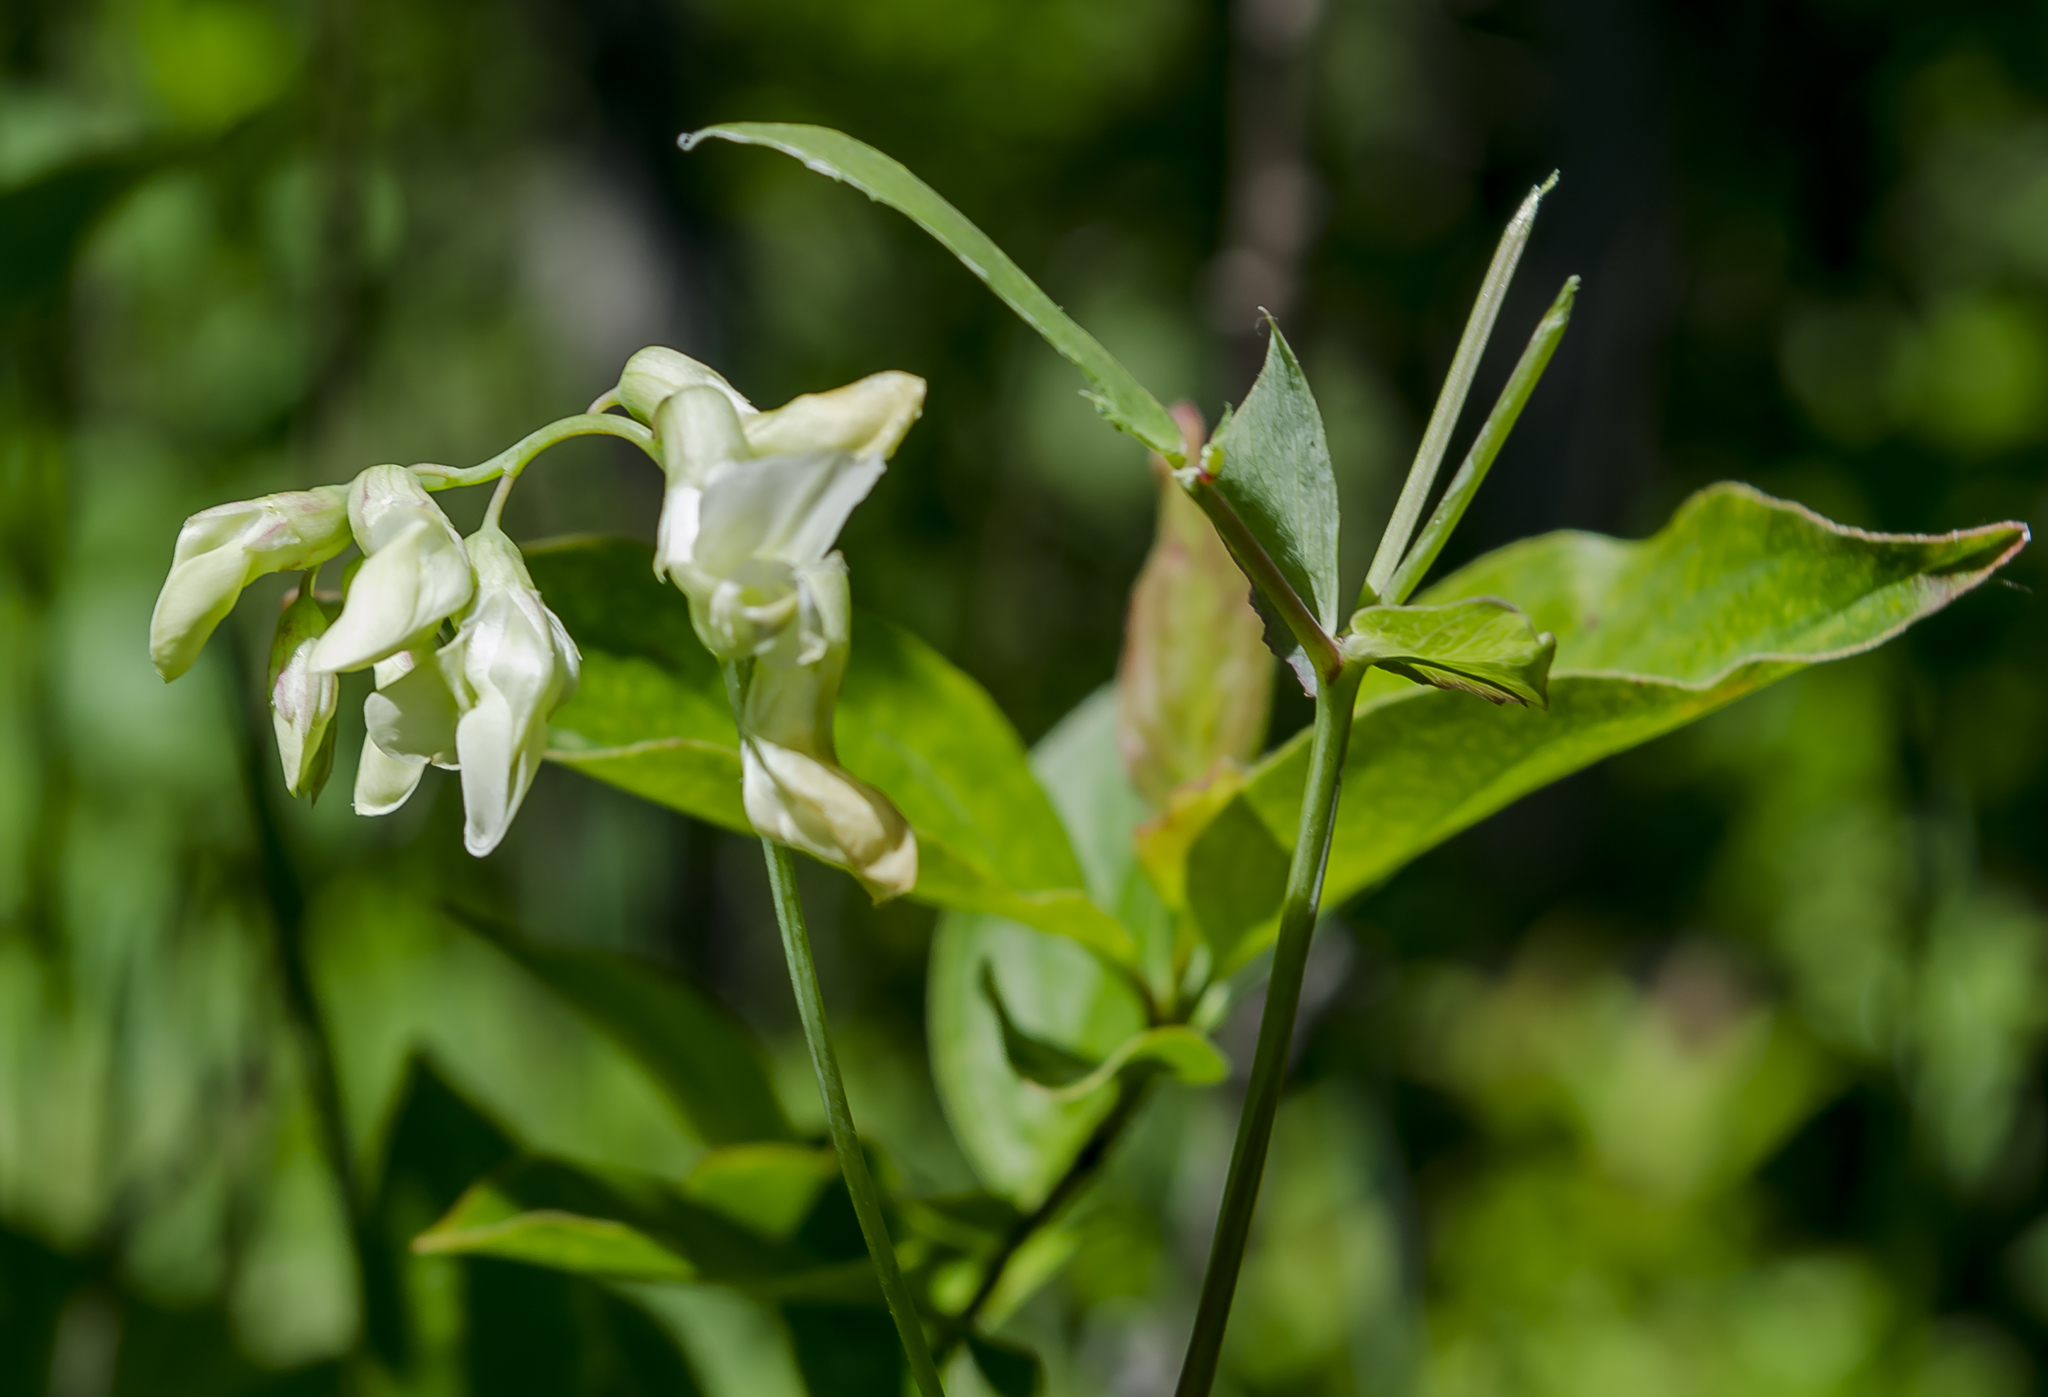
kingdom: Plantae
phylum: Tracheophyta
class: Magnoliopsida
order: Fabales
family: Fabaceae
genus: Lathyrus
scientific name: Lathyrus ochroleucus
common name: Pale vetchling
